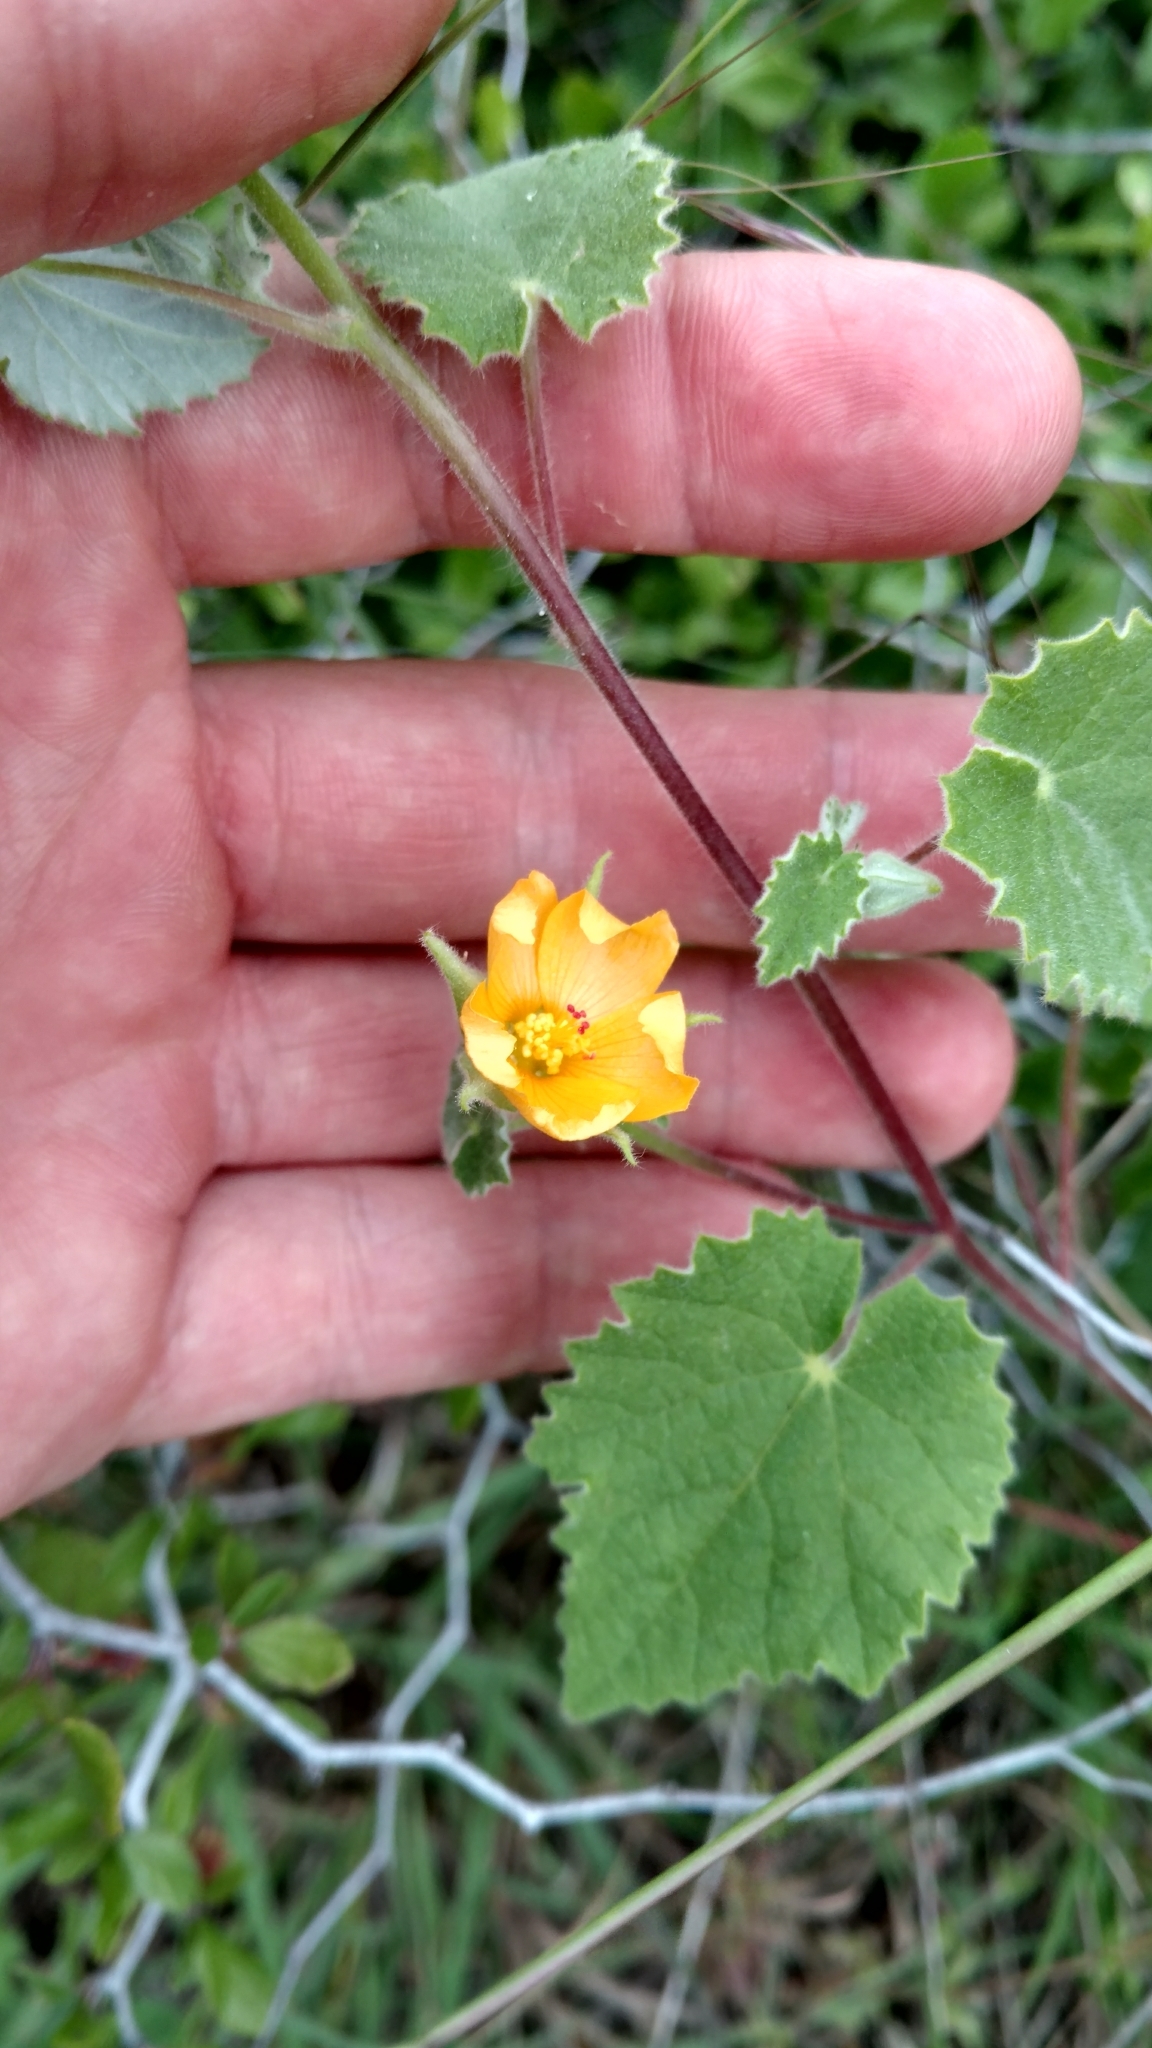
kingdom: Plantae
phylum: Tracheophyta
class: Magnoliopsida
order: Malvales
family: Malvaceae
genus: Abutilon
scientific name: Abutilon wrightii
